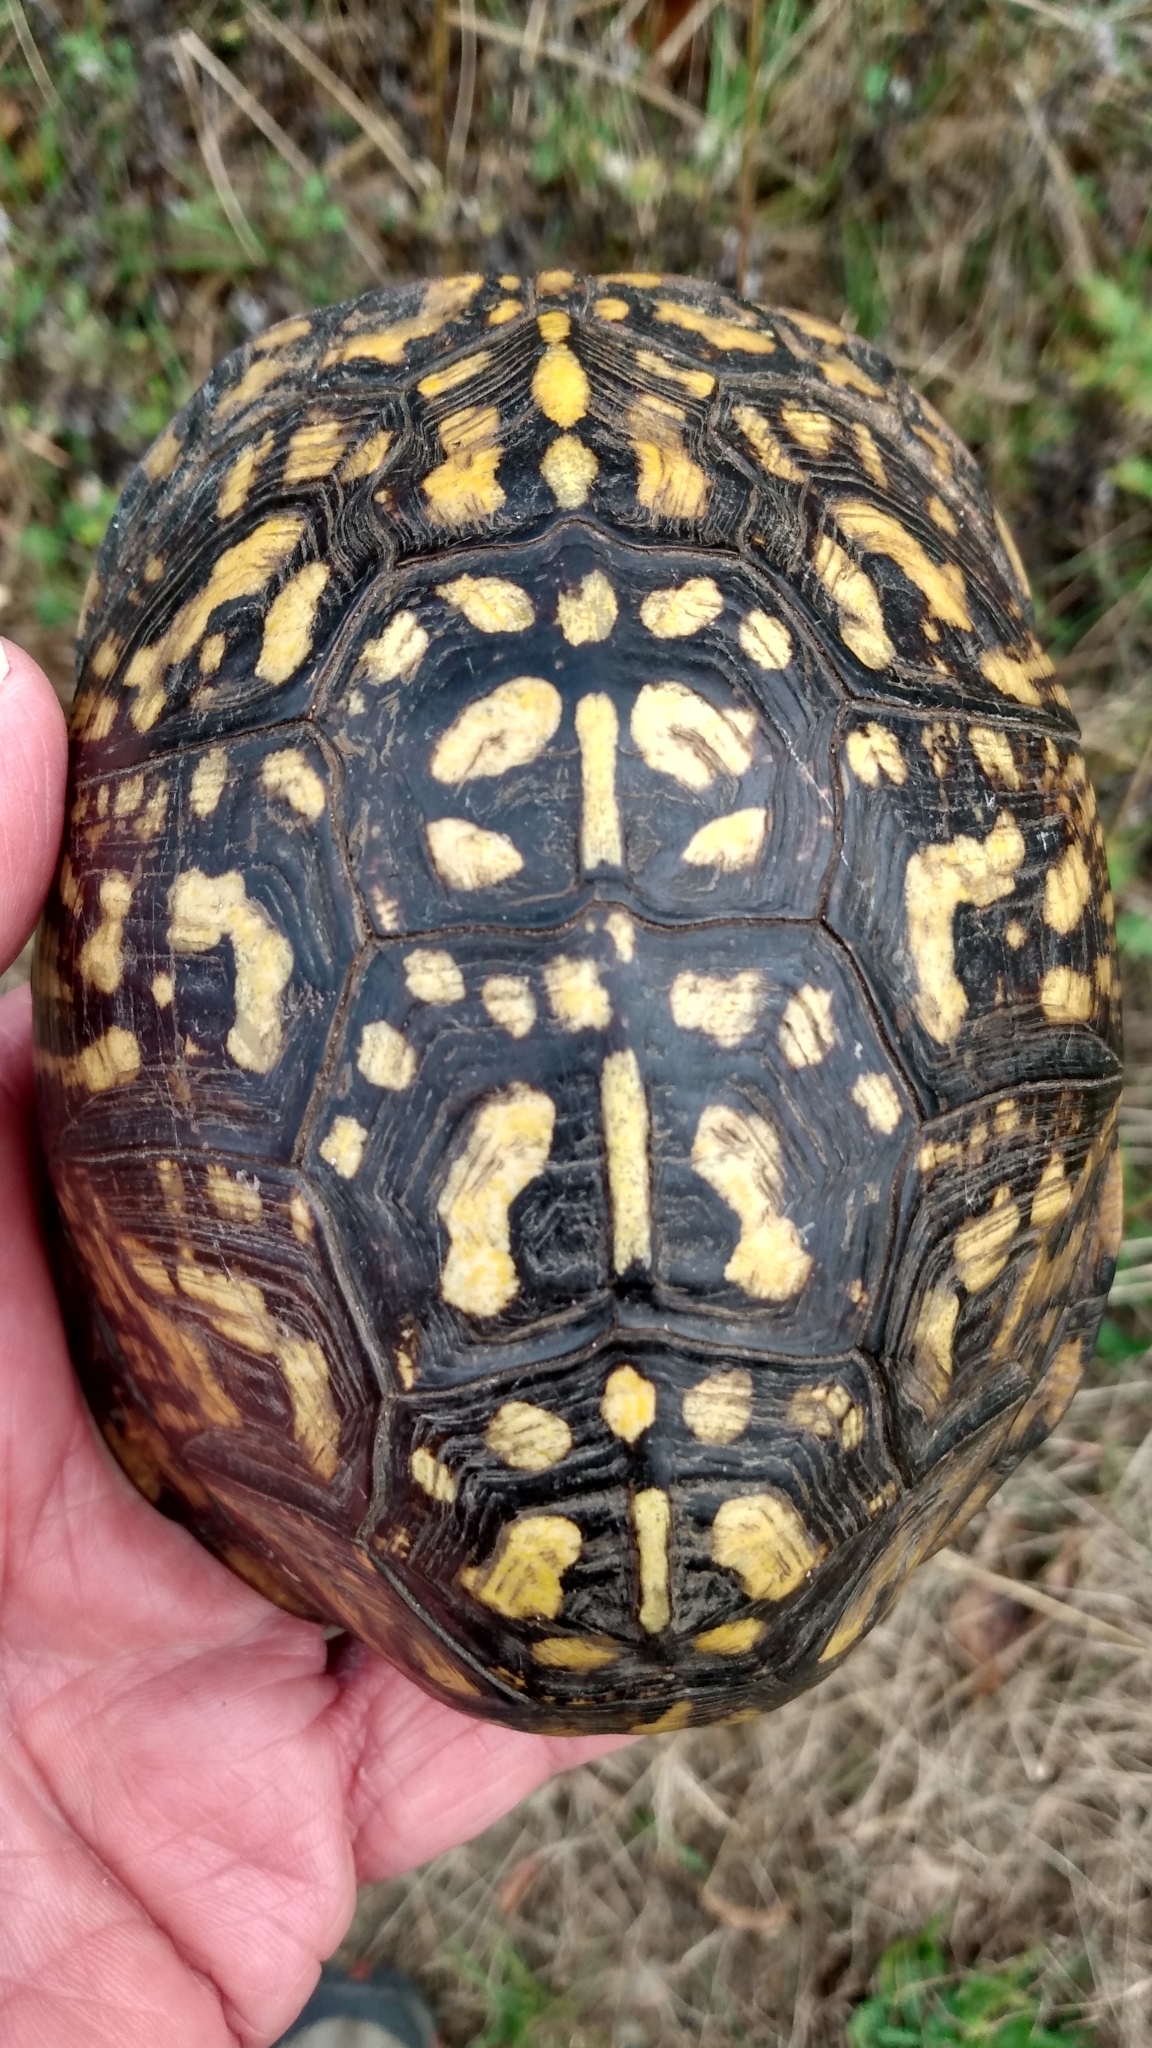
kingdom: Animalia
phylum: Chordata
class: Testudines
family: Emydidae
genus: Terrapene
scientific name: Terrapene carolina
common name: Common box turtle
